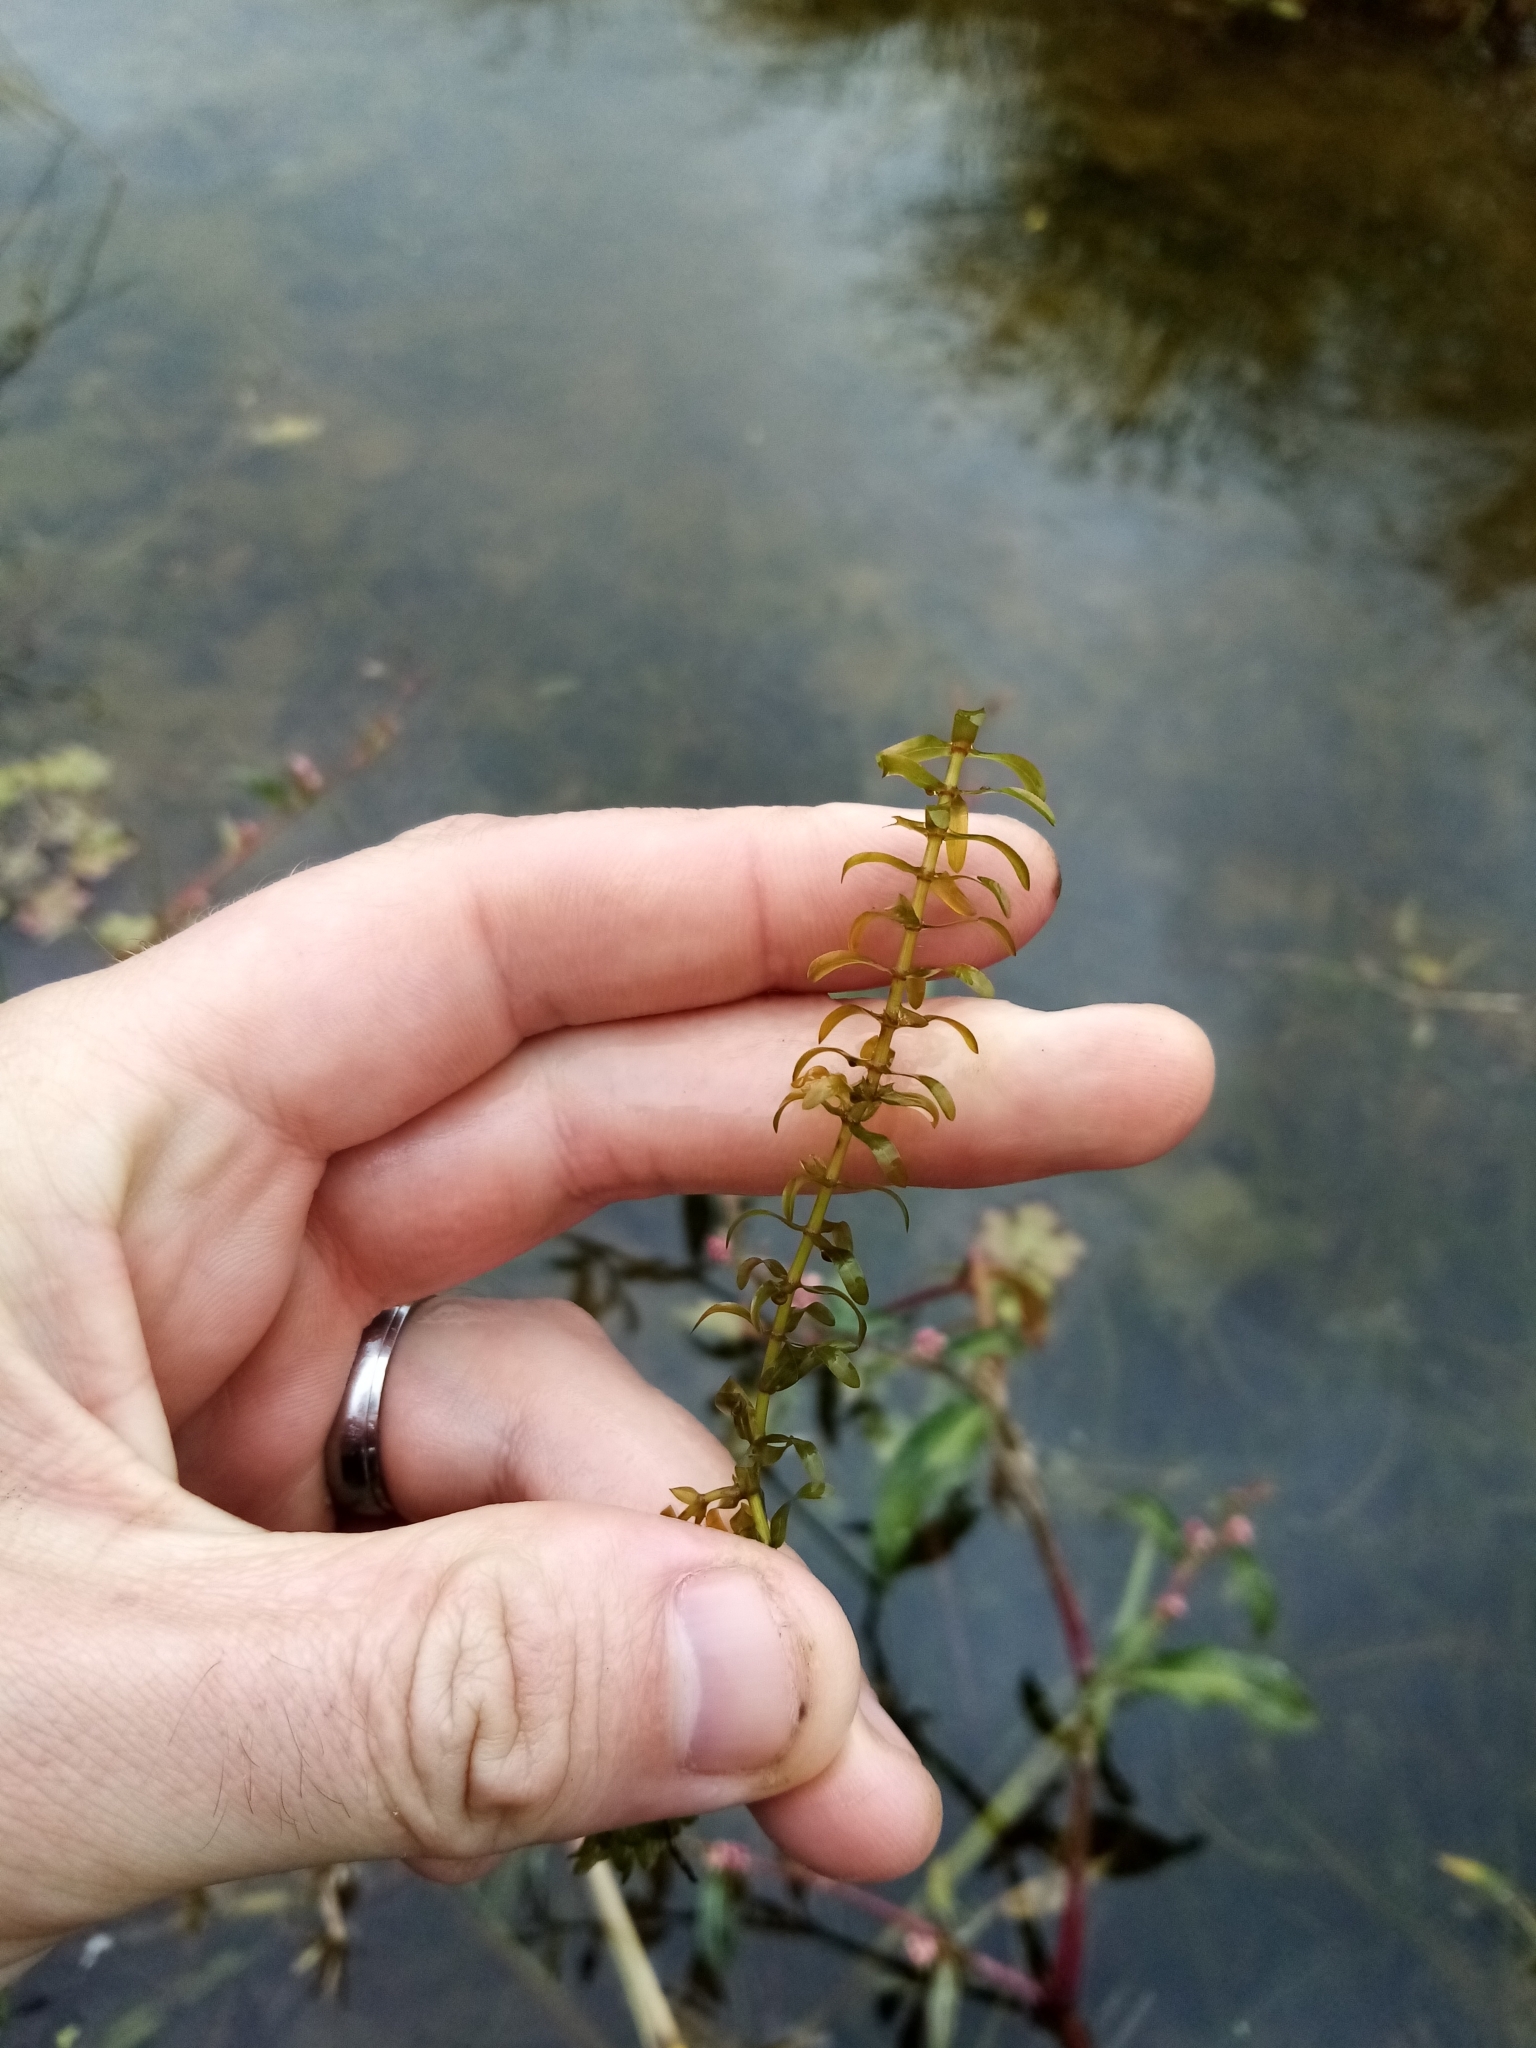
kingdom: Plantae
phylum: Tracheophyta
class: Liliopsida
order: Alismatales
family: Hydrocharitaceae
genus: Elodea
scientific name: Elodea canadensis
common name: Canadian waterweed
